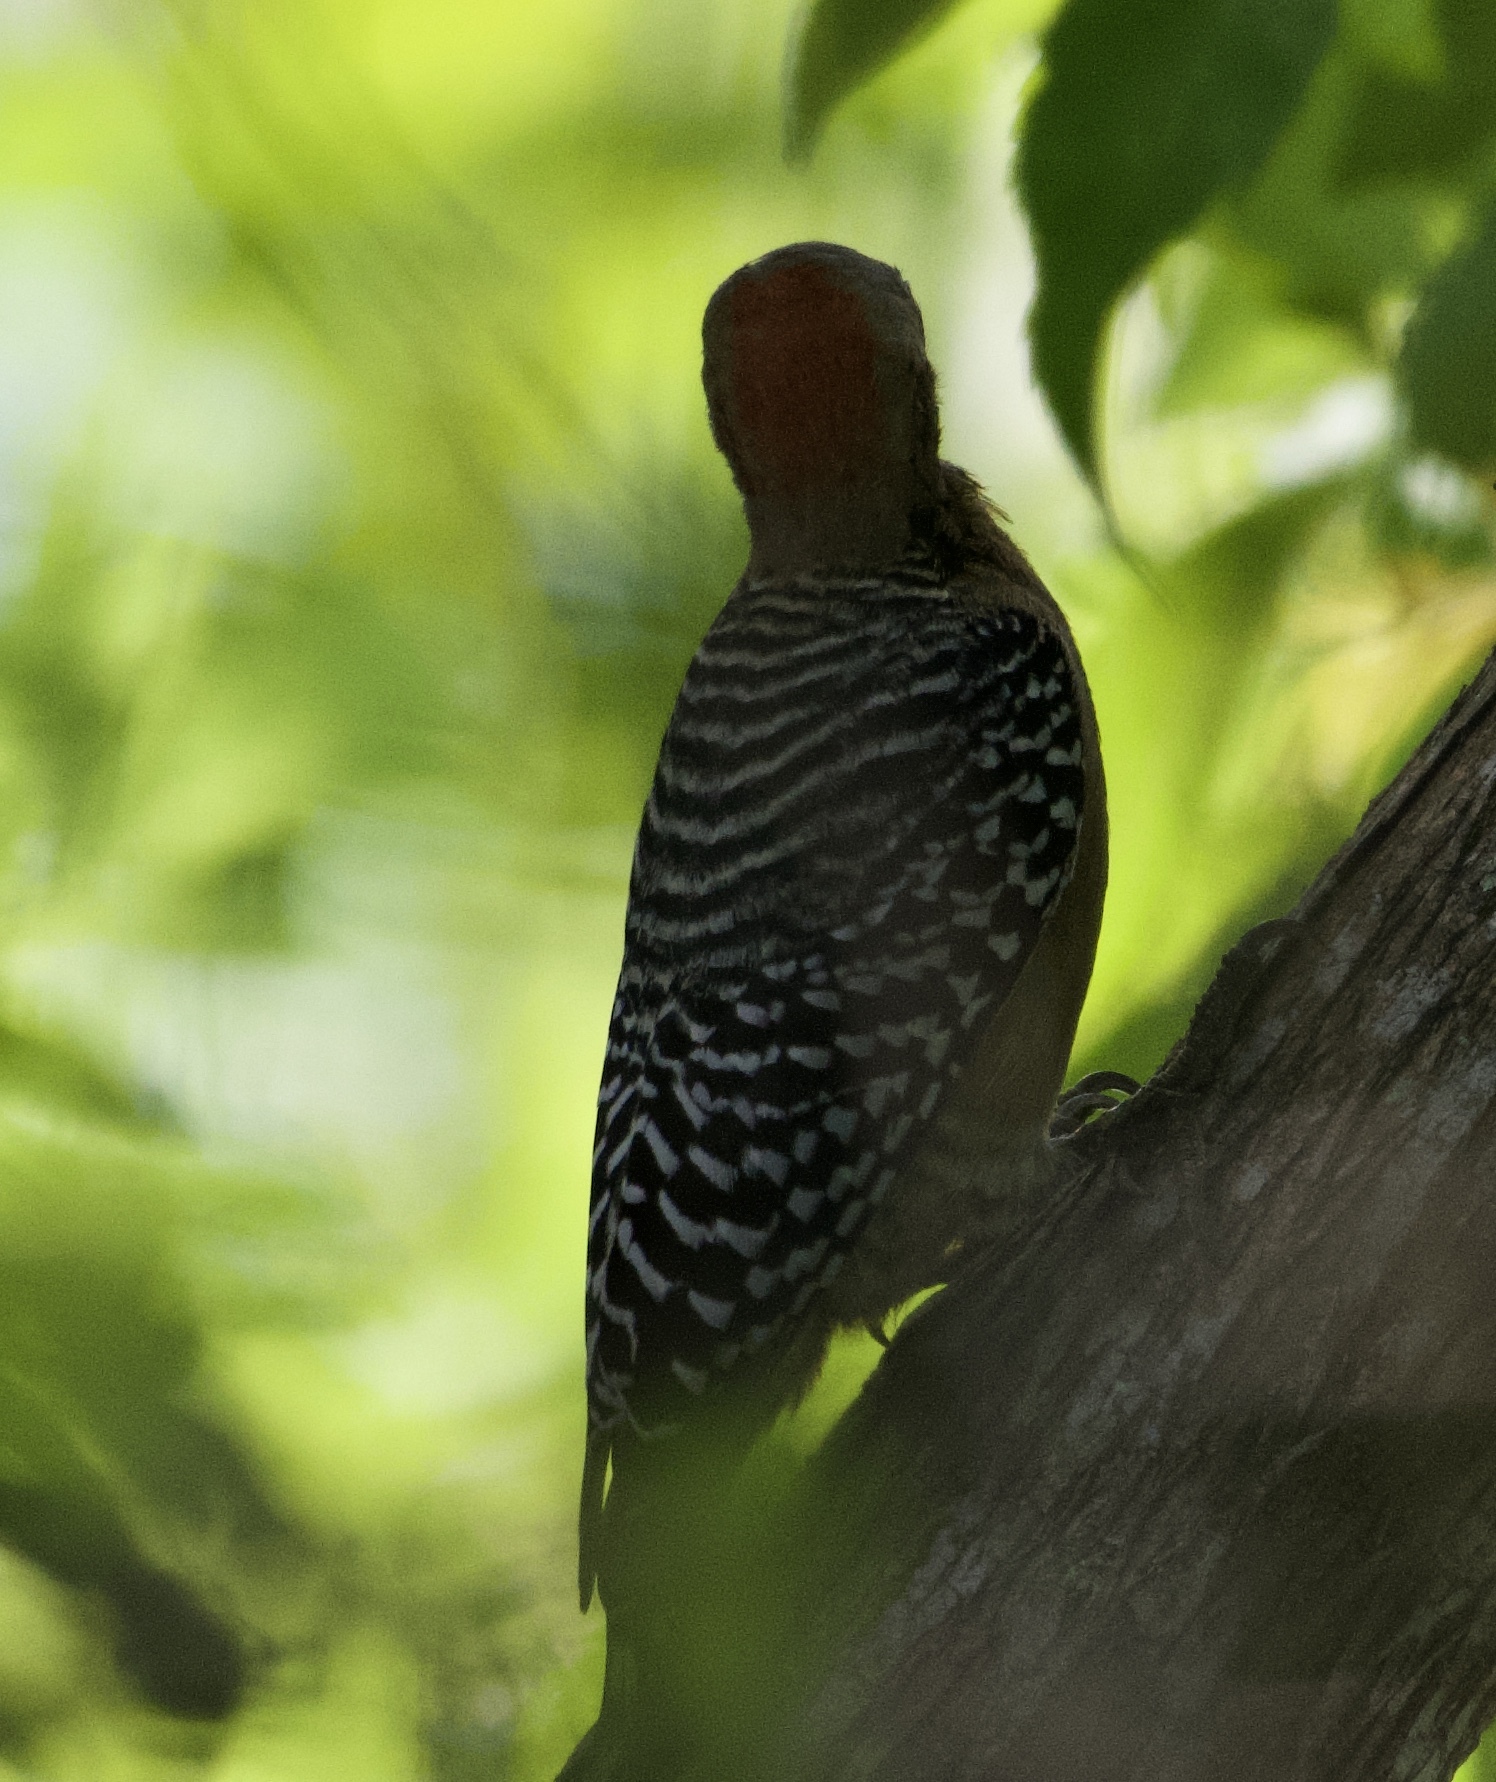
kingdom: Animalia
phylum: Chordata
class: Aves
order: Piciformes
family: Picidae
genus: Melanerpes
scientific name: Melanerpes rubricapillus
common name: Red-crowned woodpecker
